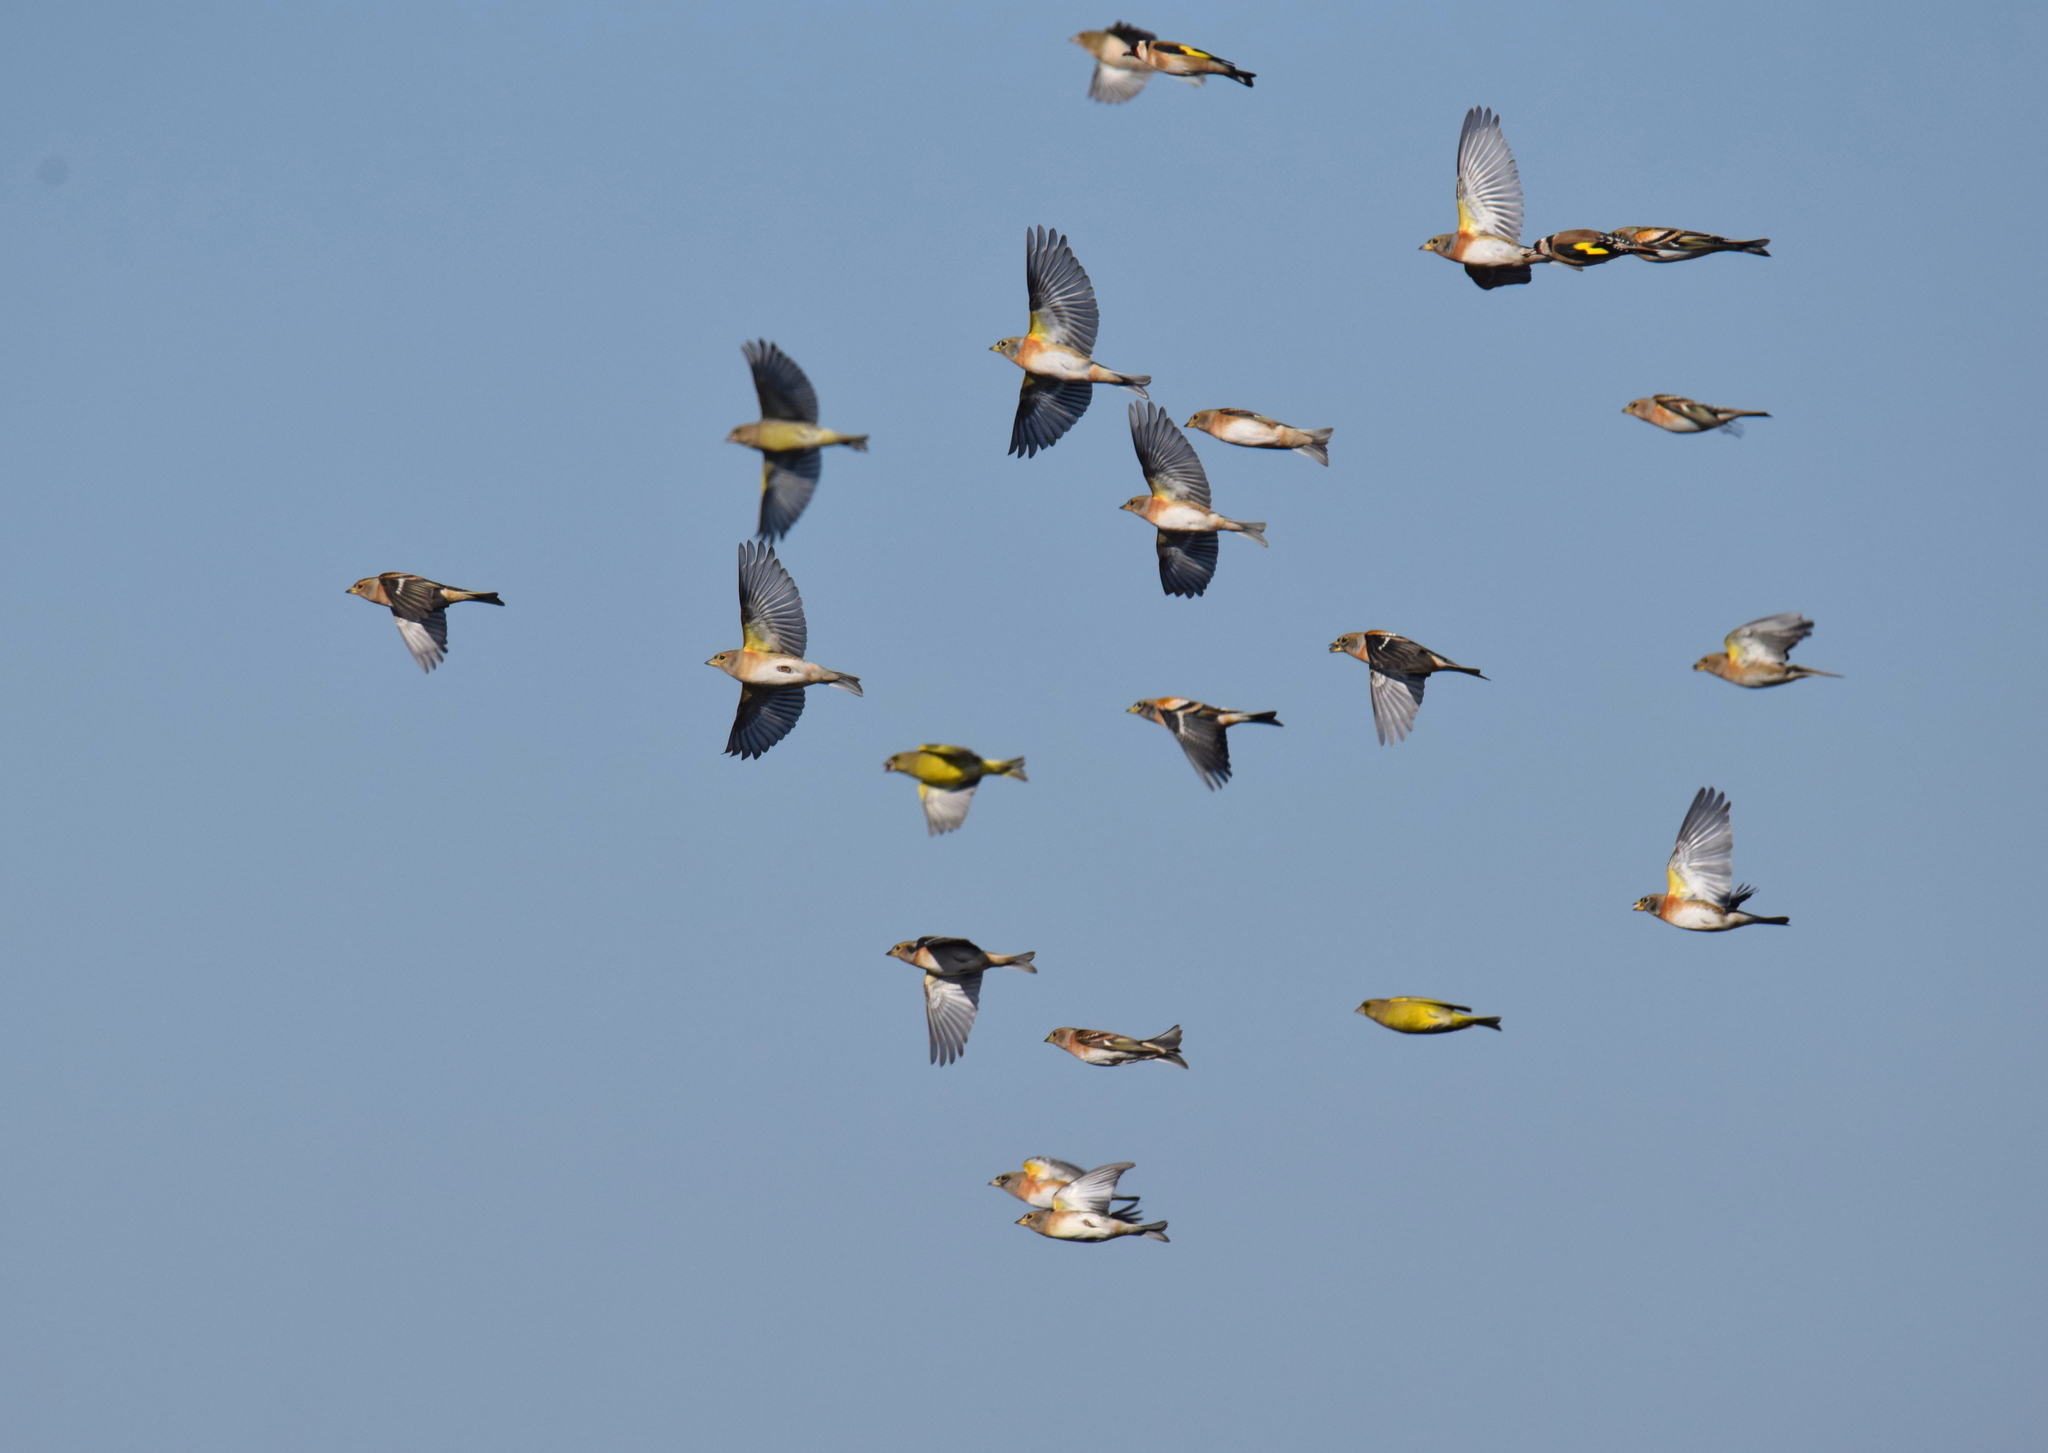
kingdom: Animalia
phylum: Chordata
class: Aves
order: Passeriformes
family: Fringillidae
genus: Fringilla
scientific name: Fringilla montifringilla
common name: Brambling
